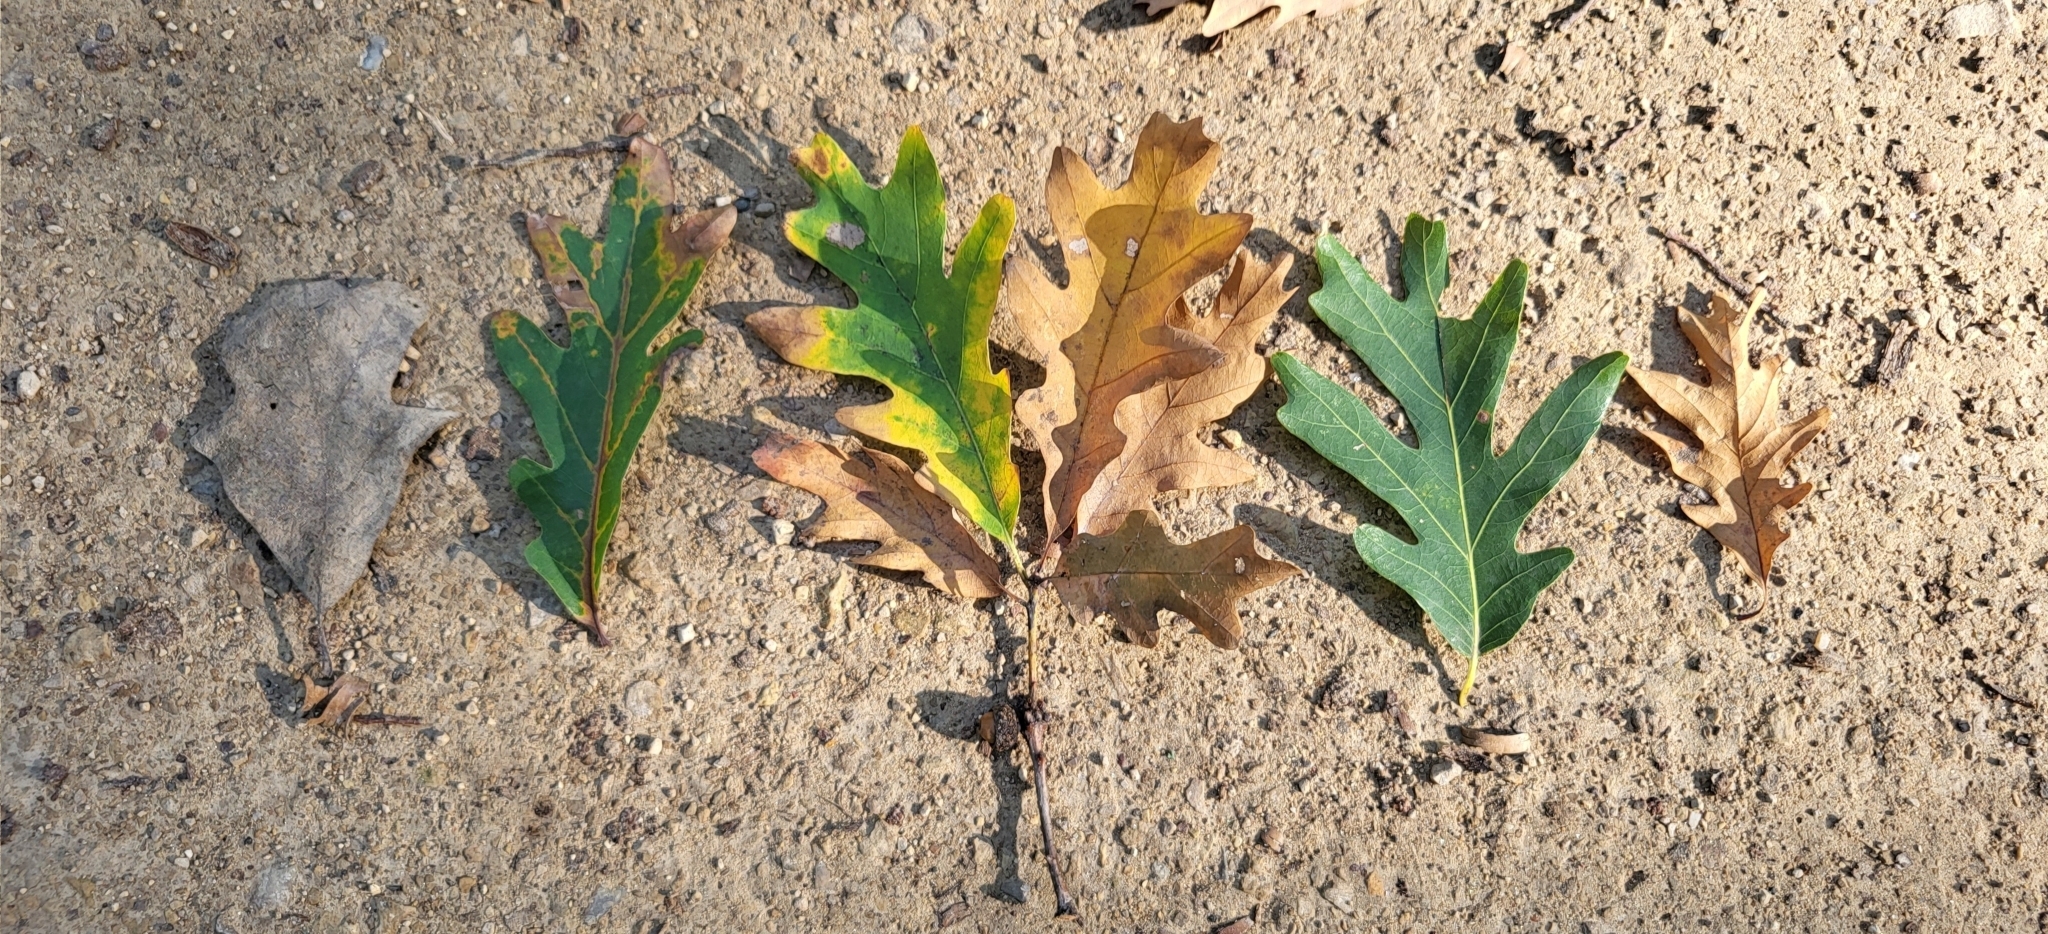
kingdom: Plantae
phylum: Tracheophyta
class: Magnoliopsida
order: Fagales
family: Fagaceae
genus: Quercus
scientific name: Quercus alba
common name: White oak
